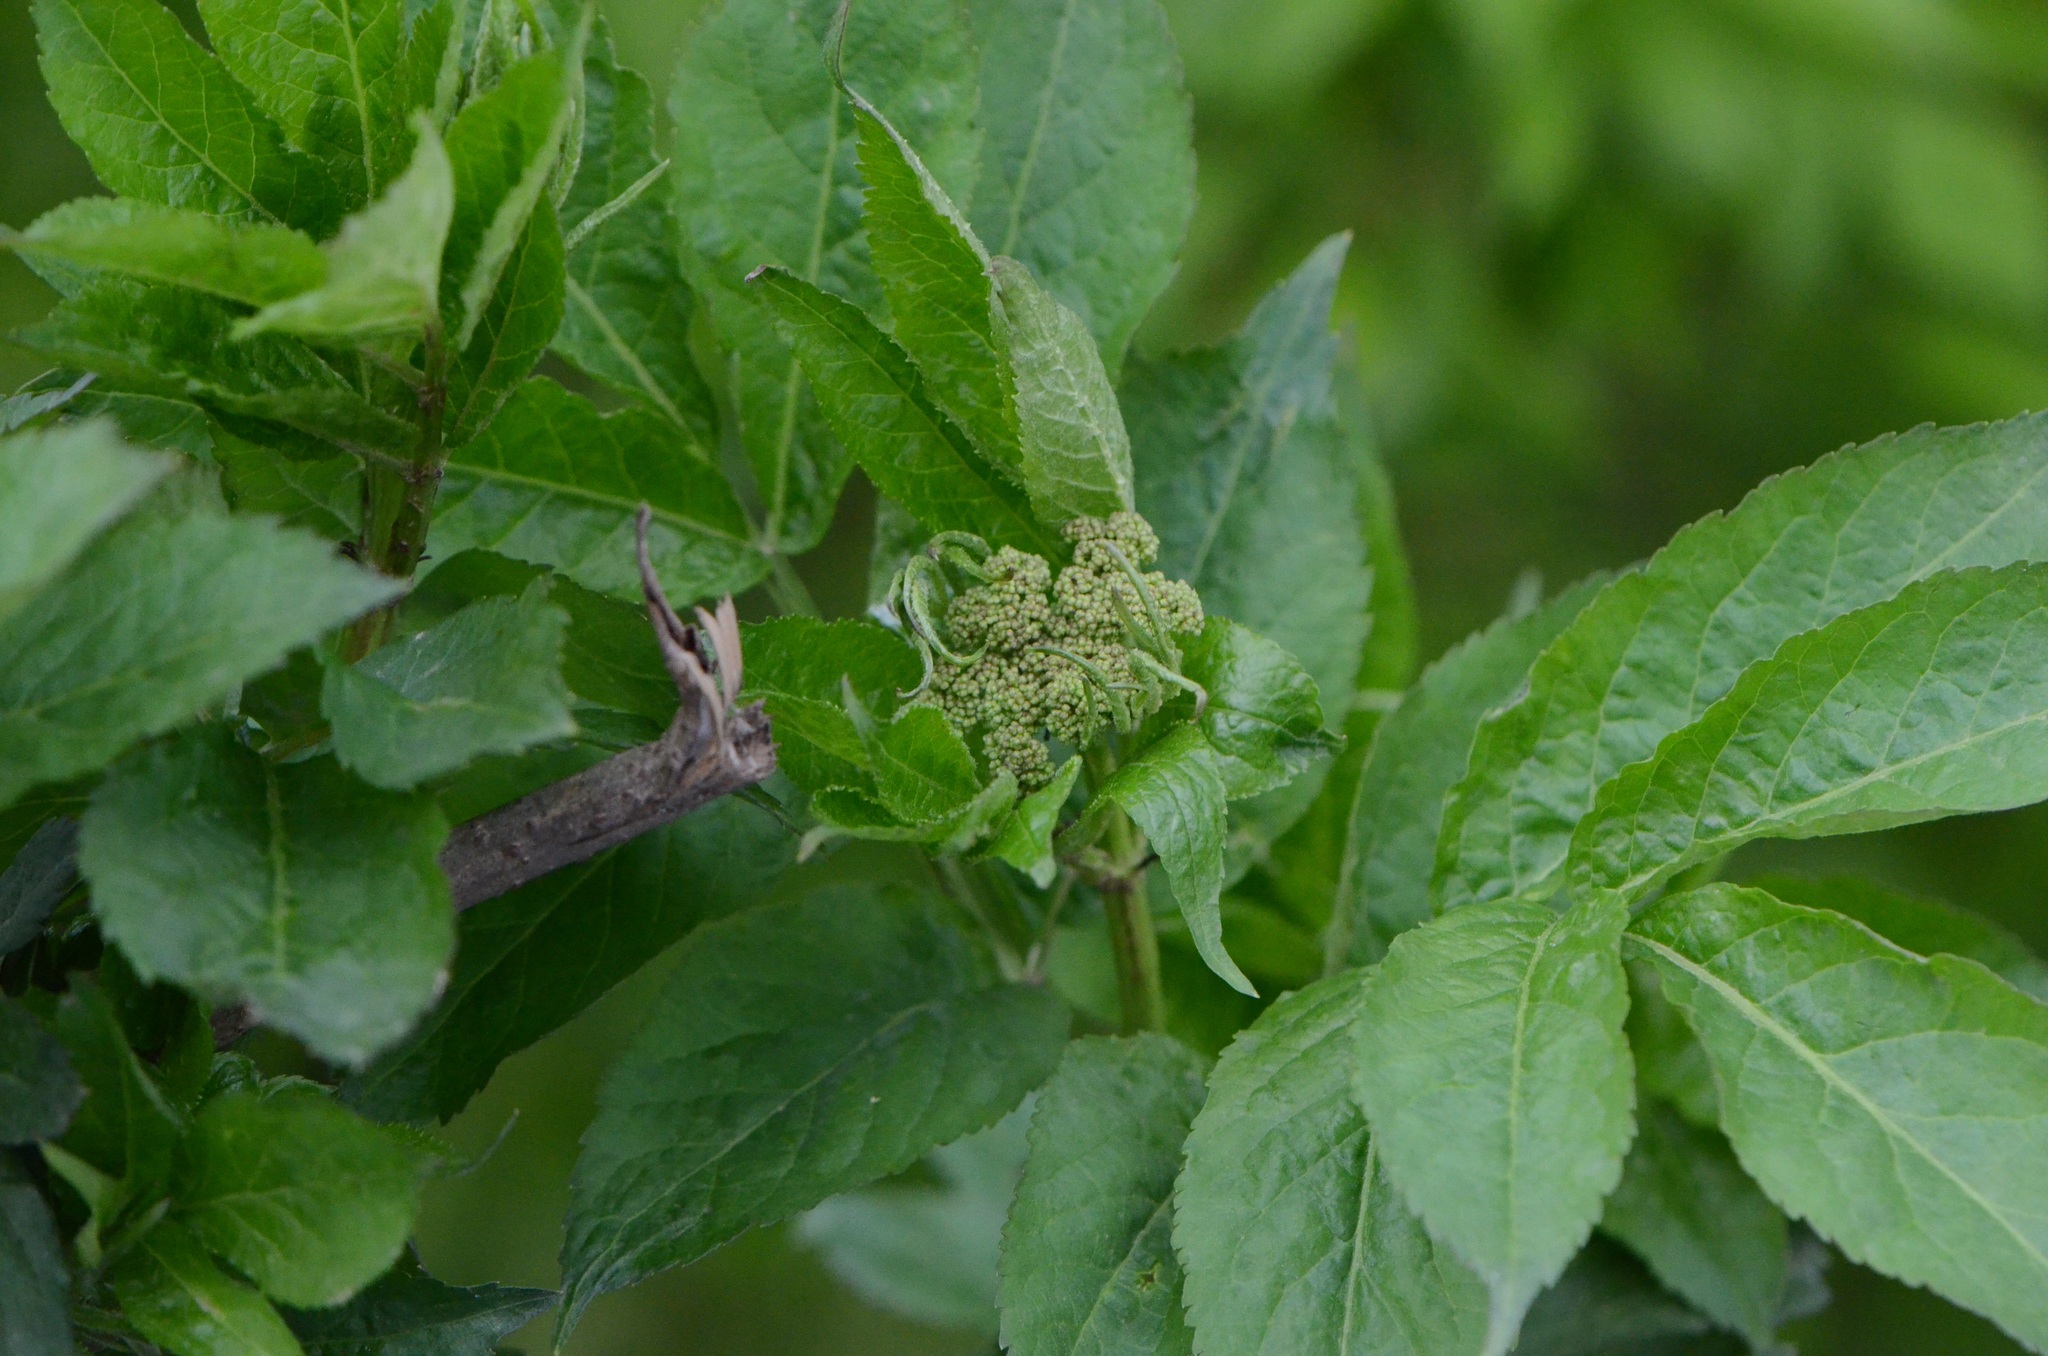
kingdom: Plantae
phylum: Tracheophyta
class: Magnoliopsida
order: Dipsacales
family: Viburnaceae
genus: Sambucus
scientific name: Sambucus nigra
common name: Elder
